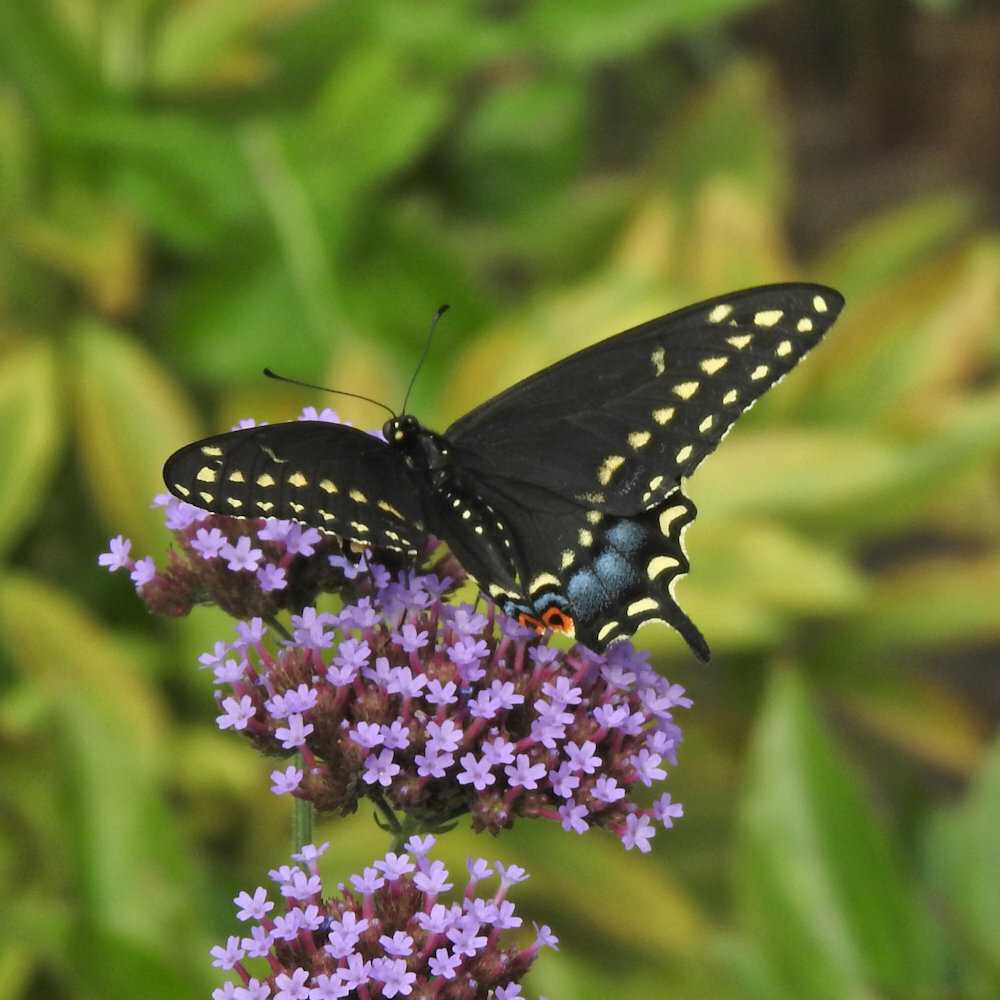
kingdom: Animalia
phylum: Arthropoda
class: Insecta
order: Lepidoptera
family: Papilionidae
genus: Papilio
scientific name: Papilio polyxenes
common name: Black swallowtail
